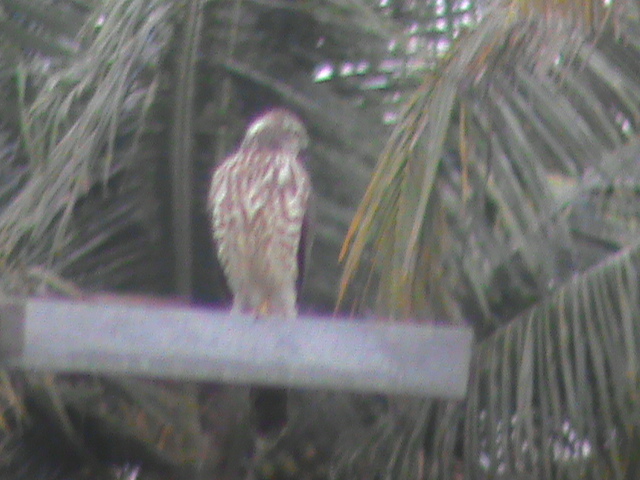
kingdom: Animalia
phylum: Chordata
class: Aves
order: Accipitriformes
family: Accipitridae
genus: Accipiter
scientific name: Accipiter badius
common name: Shikra
